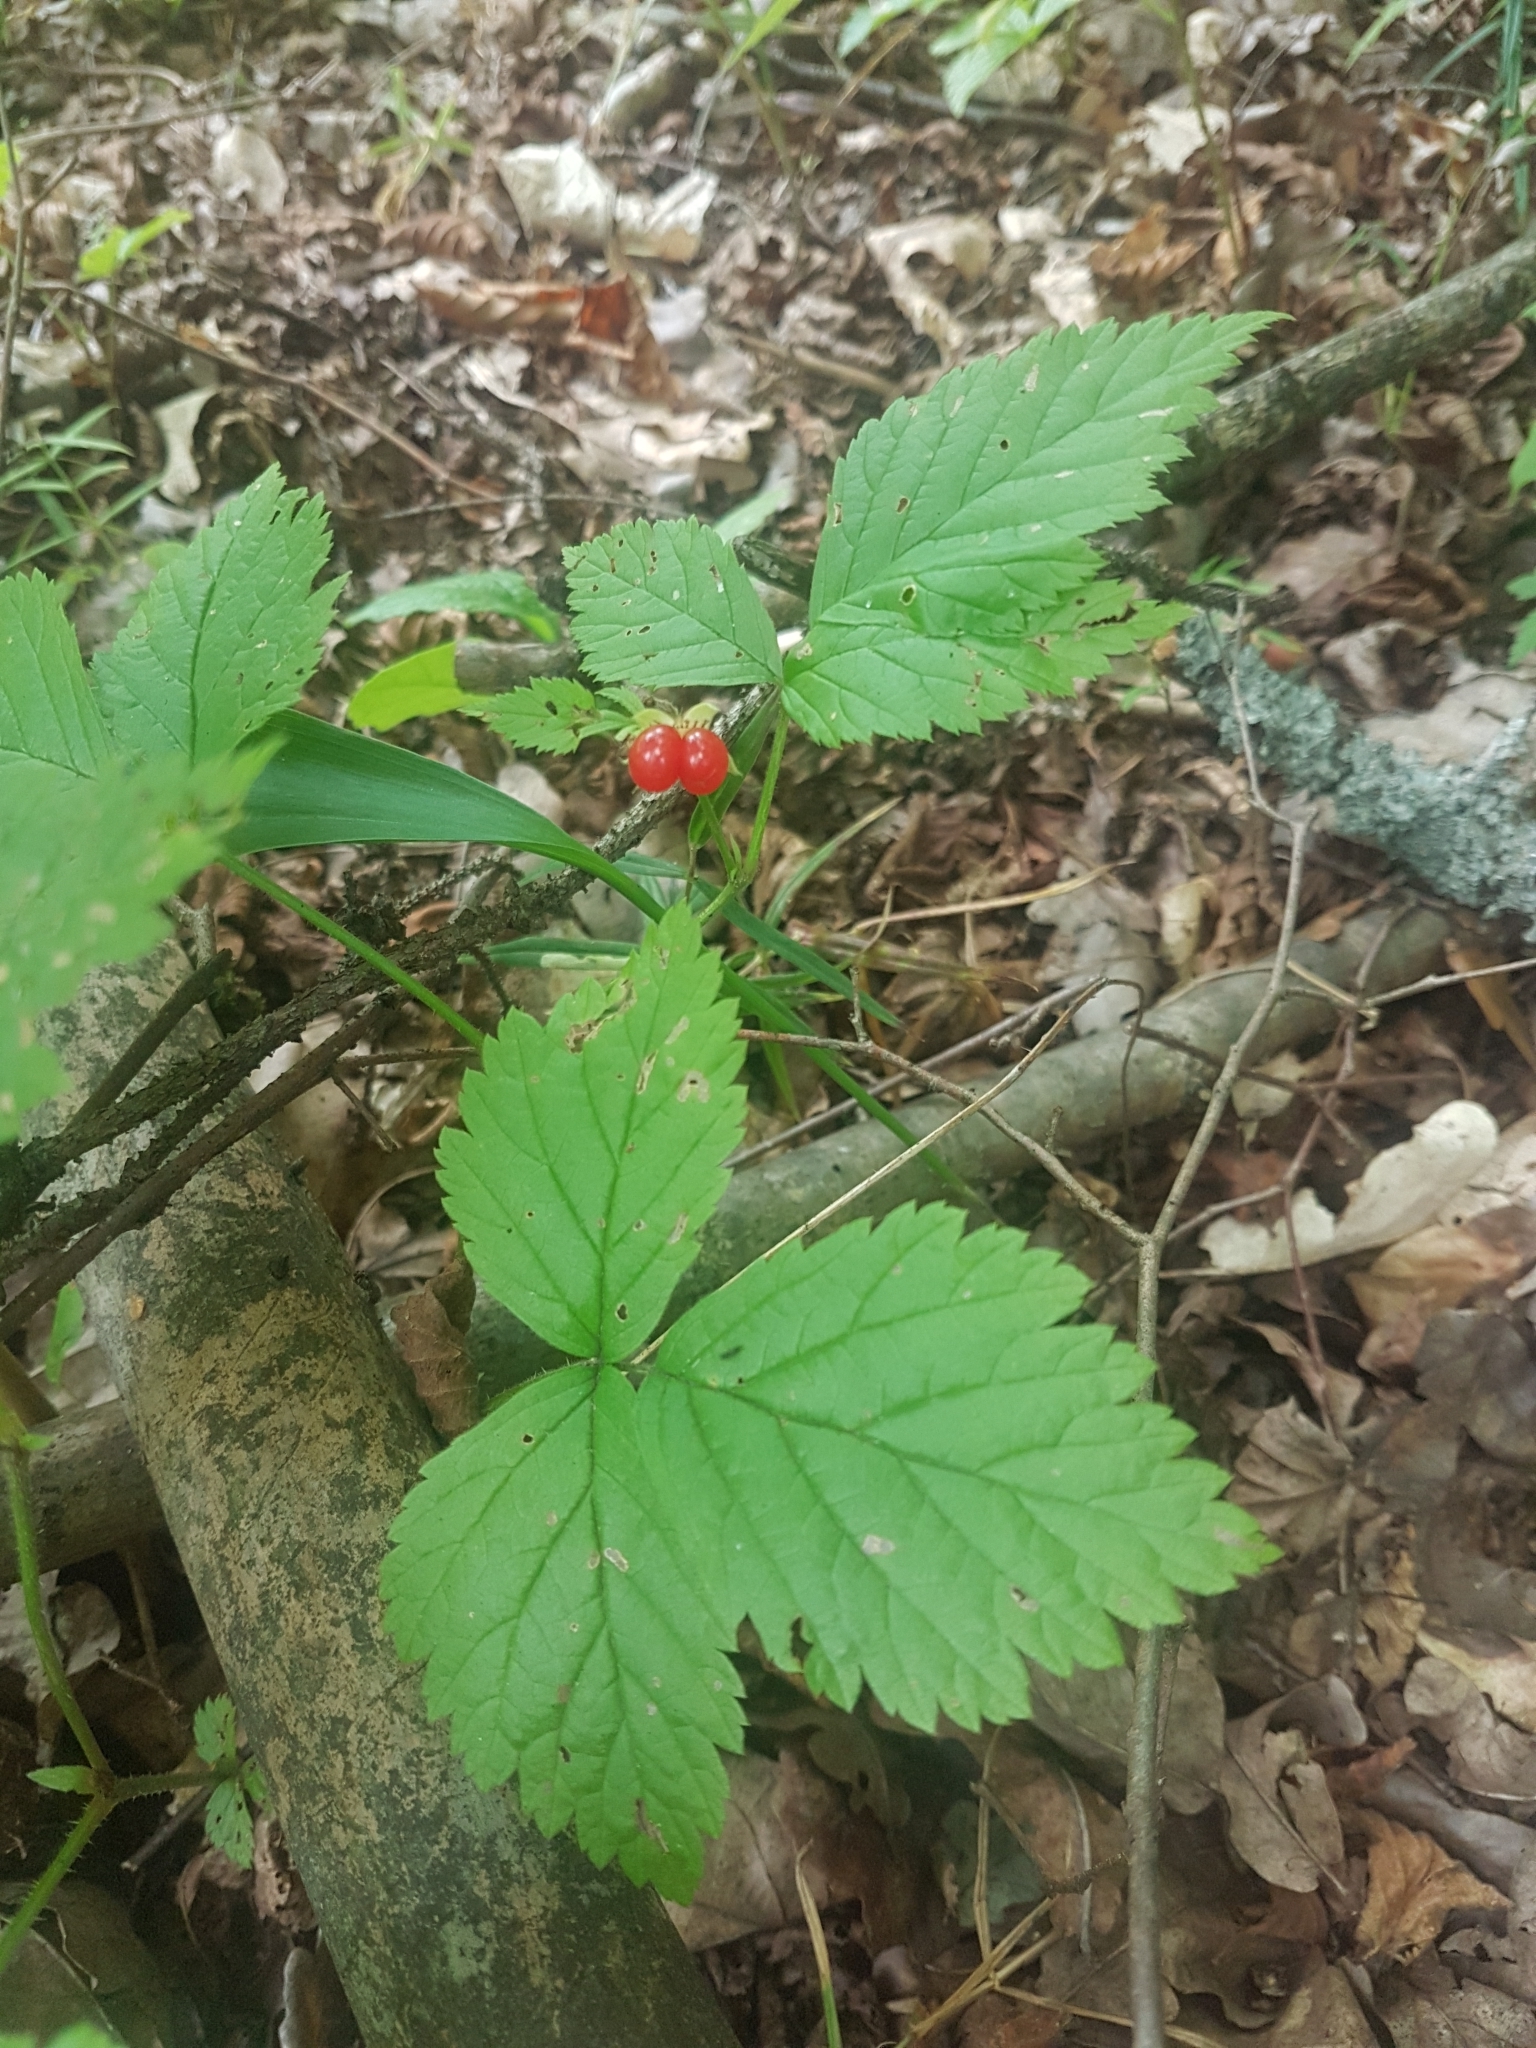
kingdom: Plantae
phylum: Tracheophyta
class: Magnoliopsida
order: Rosales
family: Rosaceae
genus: Rubus
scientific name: Rubus saxatilis
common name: Stone bramble
